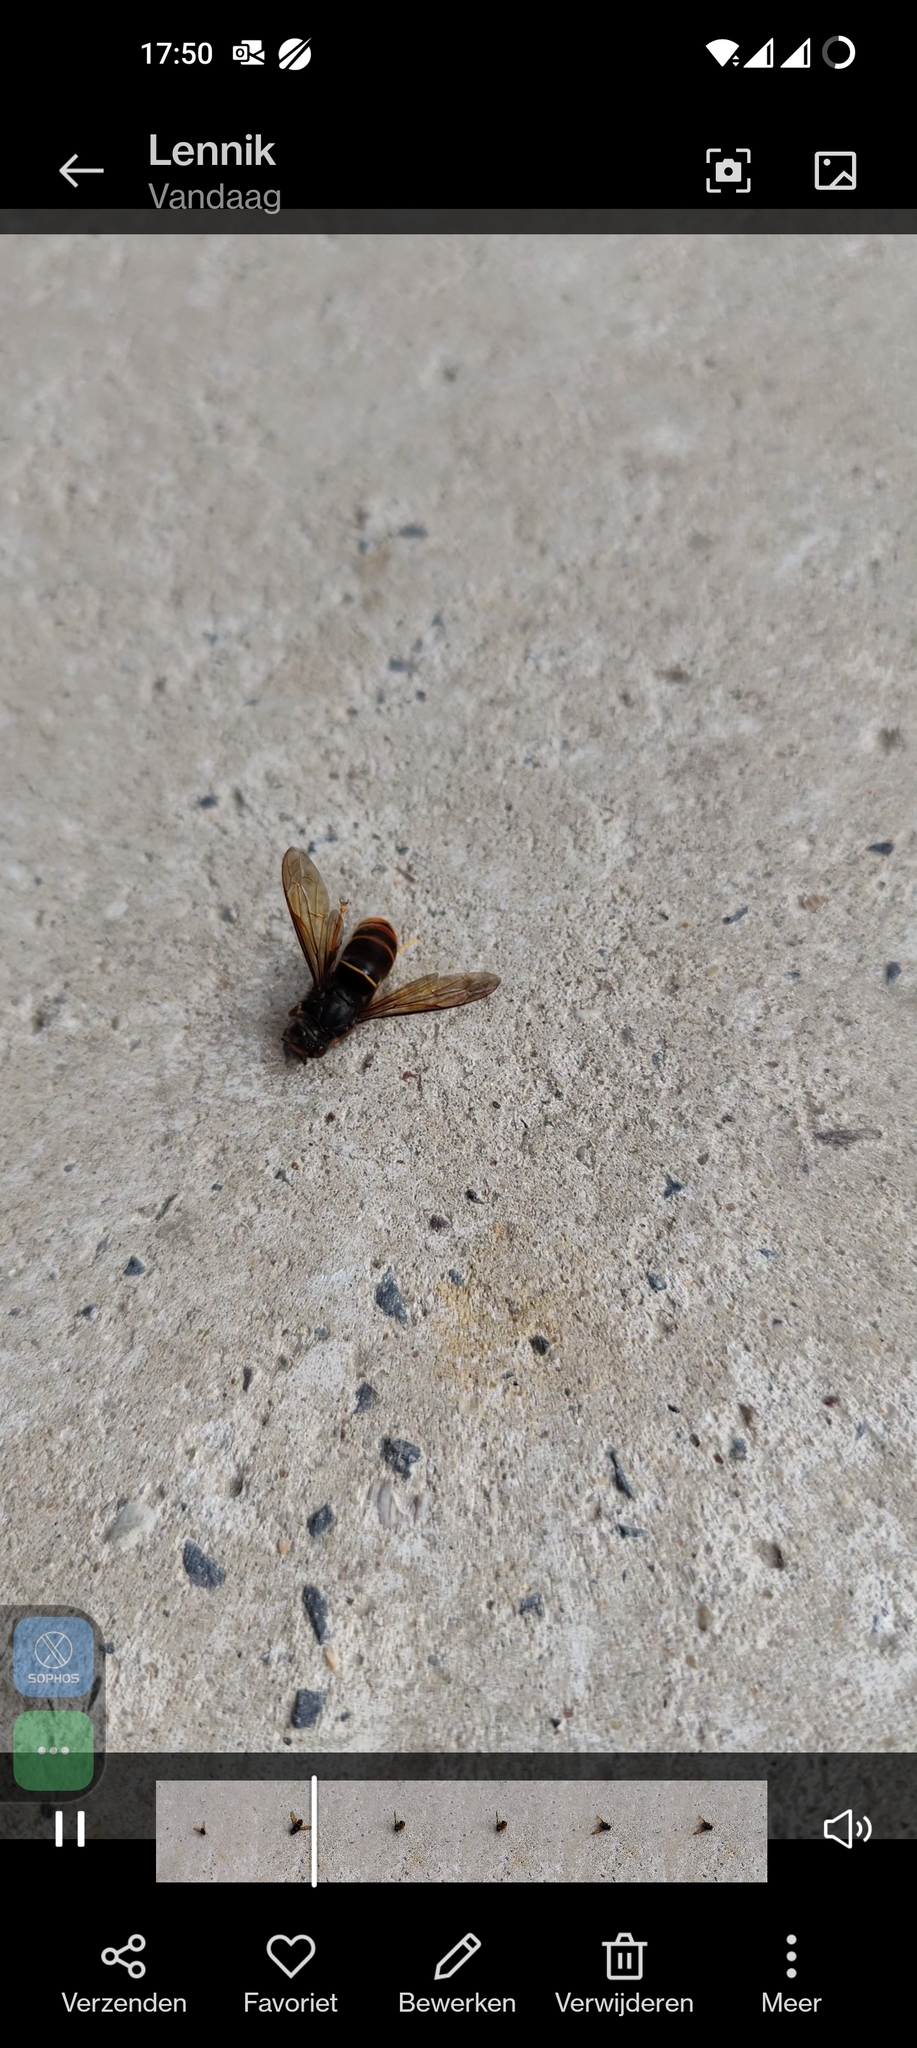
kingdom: Animalia
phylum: Arthropoda
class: Insecta
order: Hymenoptera
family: Vespidae
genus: Vespa
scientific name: Vespa velutina
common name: Asian hornet
